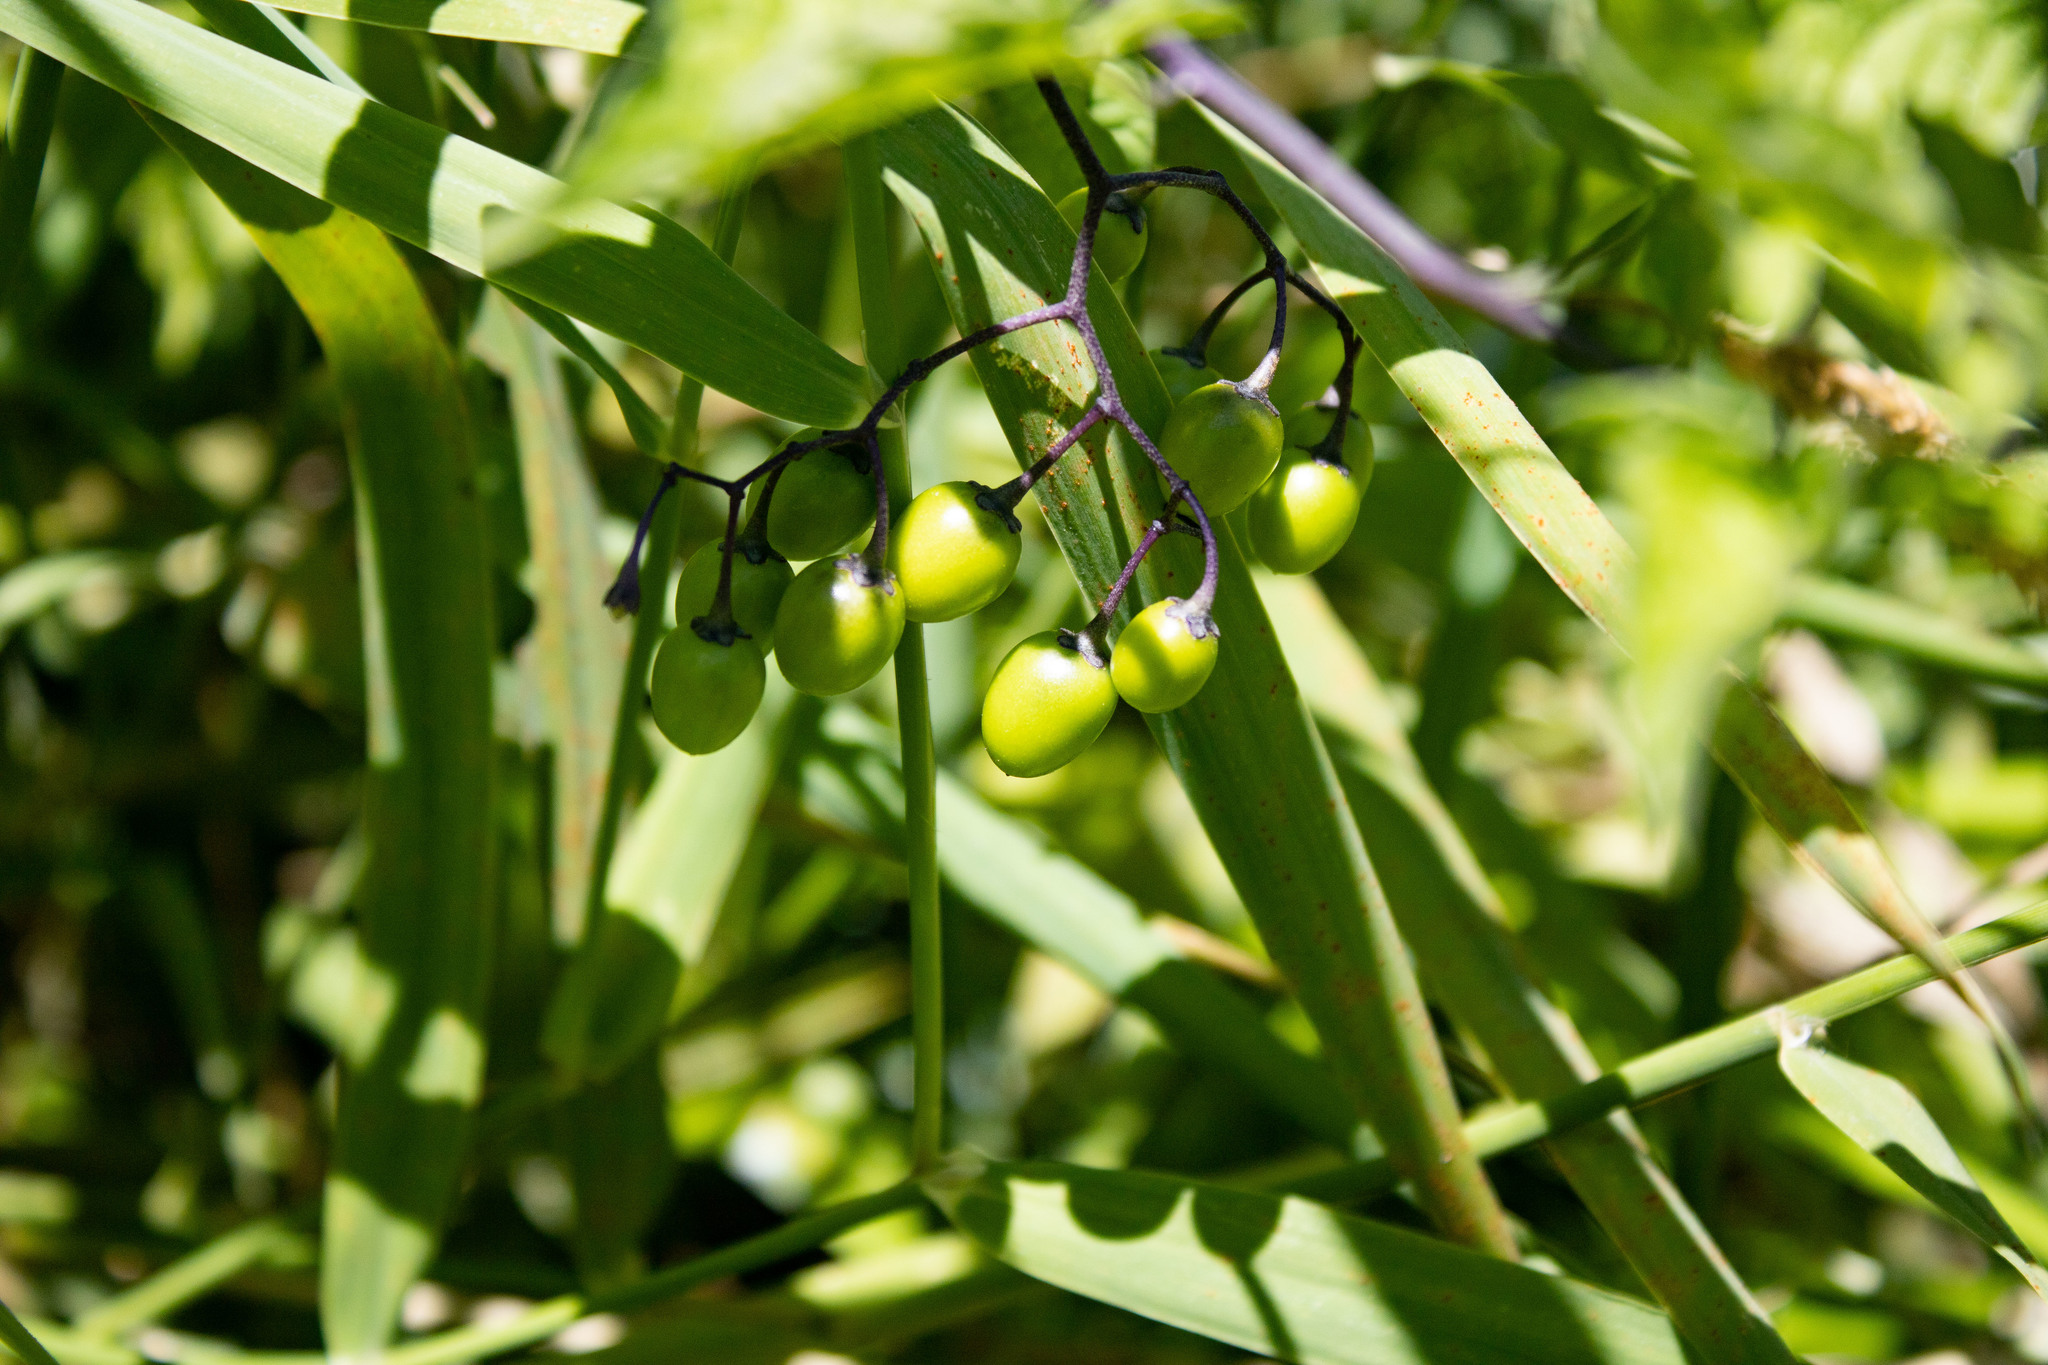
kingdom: Plantae
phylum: Tracheophyta
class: Magnoliopsida
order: Solanales
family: Solanaceae
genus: Solanum
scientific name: Solanum dulcamara
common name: Climbing nightshade
